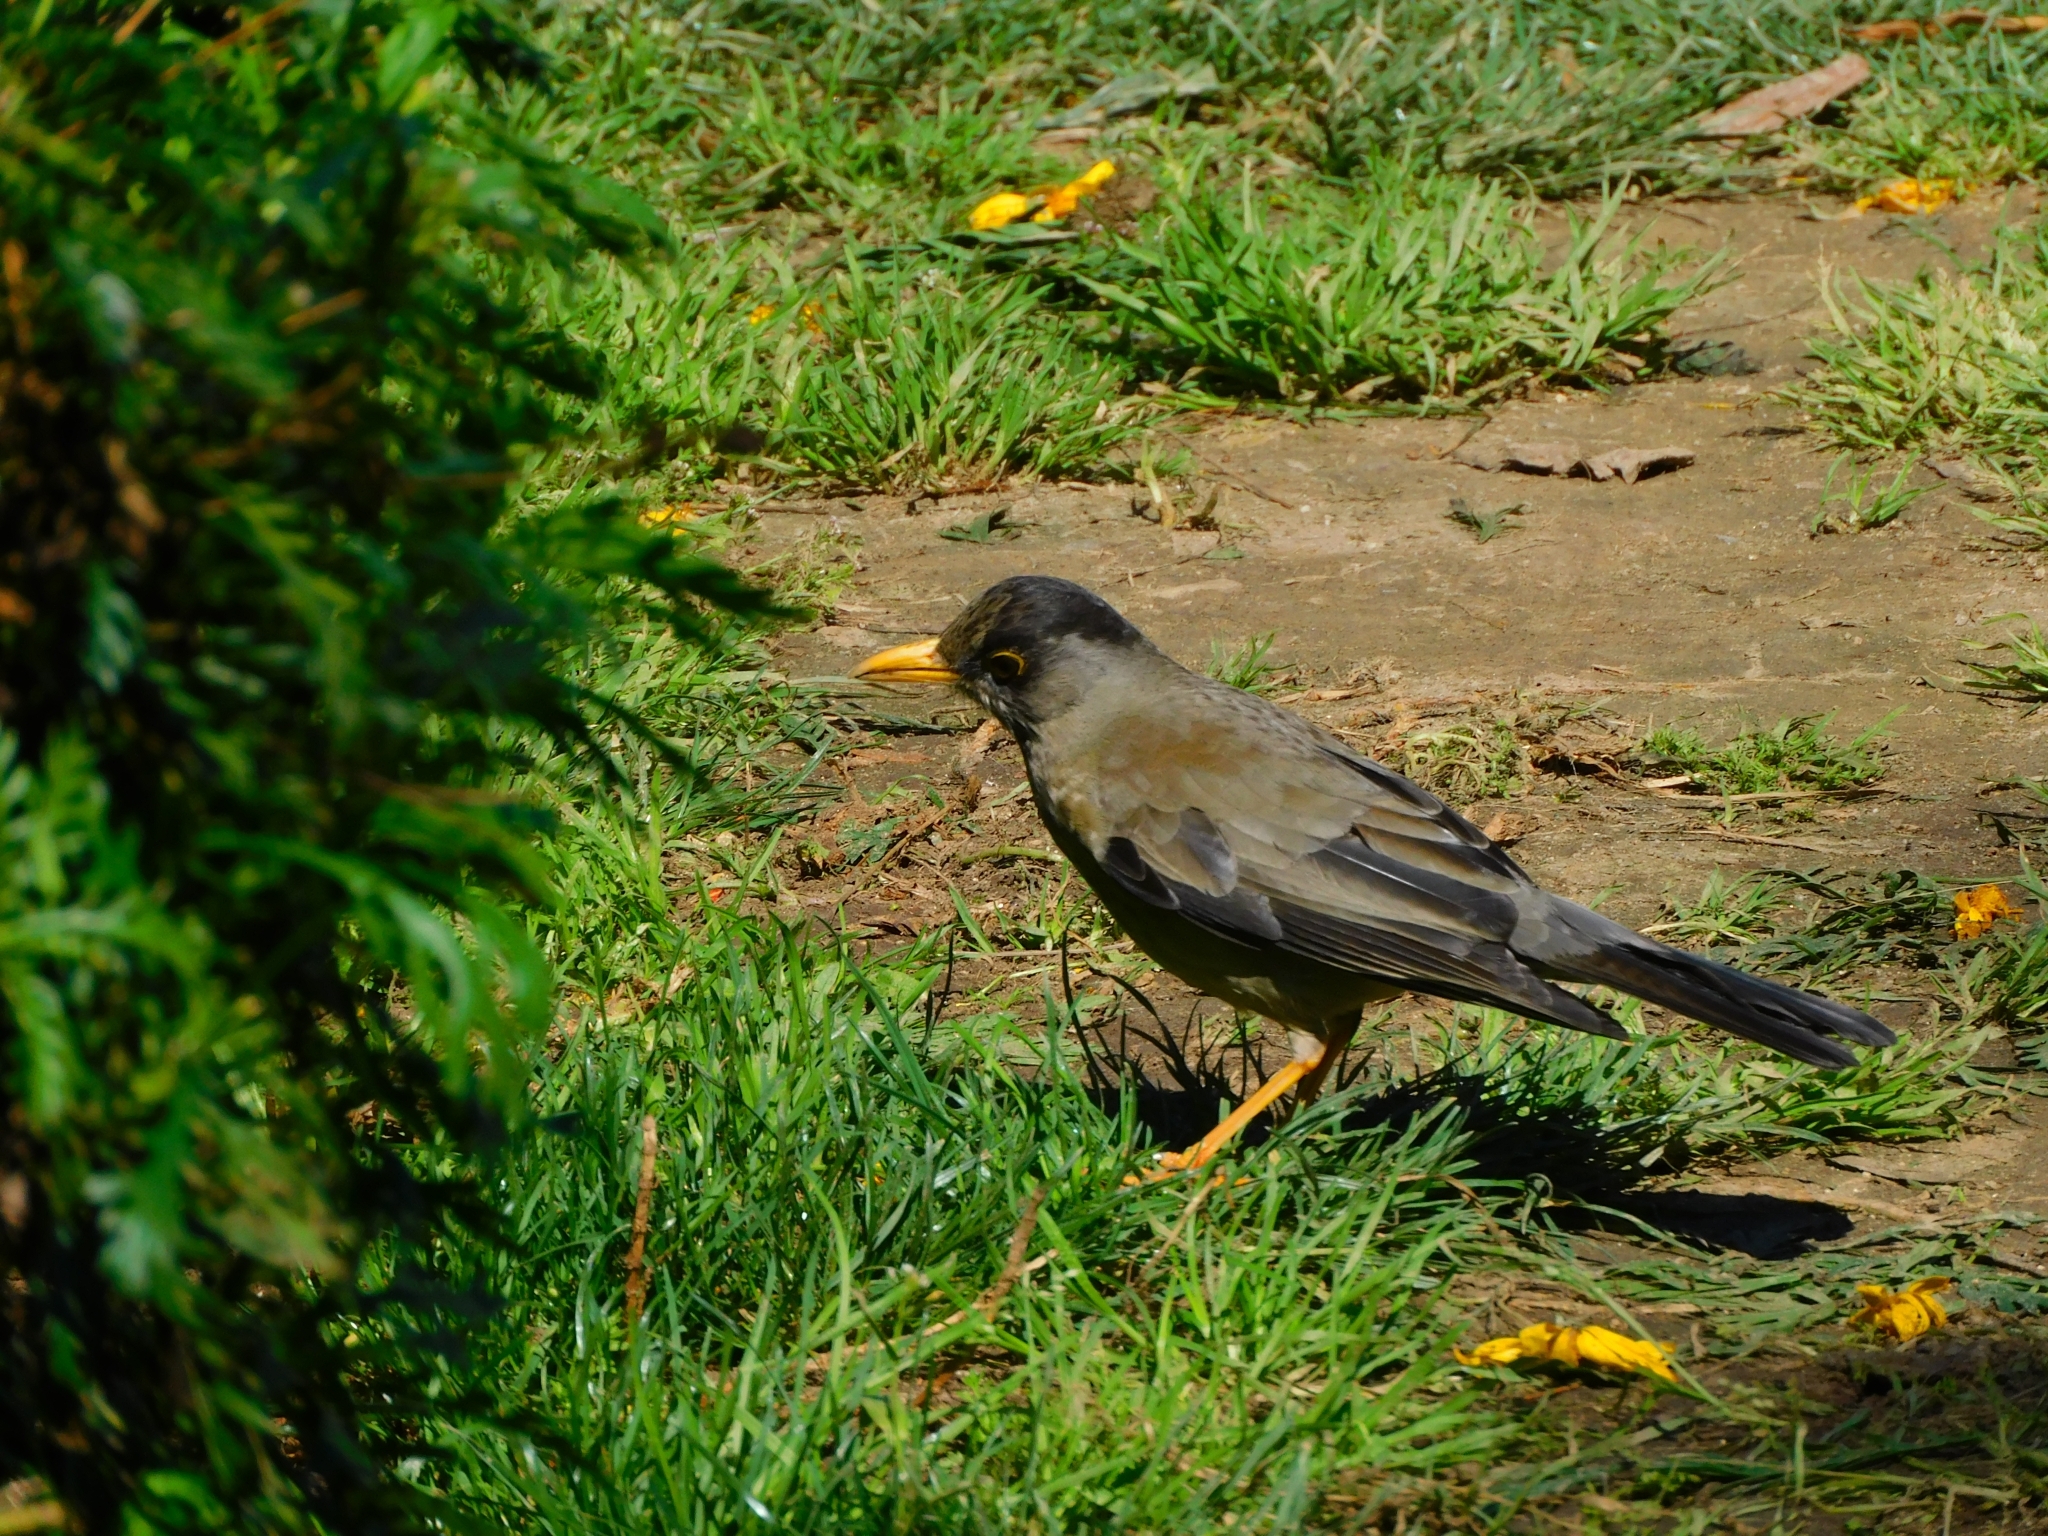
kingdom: Animalia
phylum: Chordata
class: Aves
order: Passeriformes
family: Turdidae
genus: Turdus
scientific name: Turdus falcklandii
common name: Austral thrush
